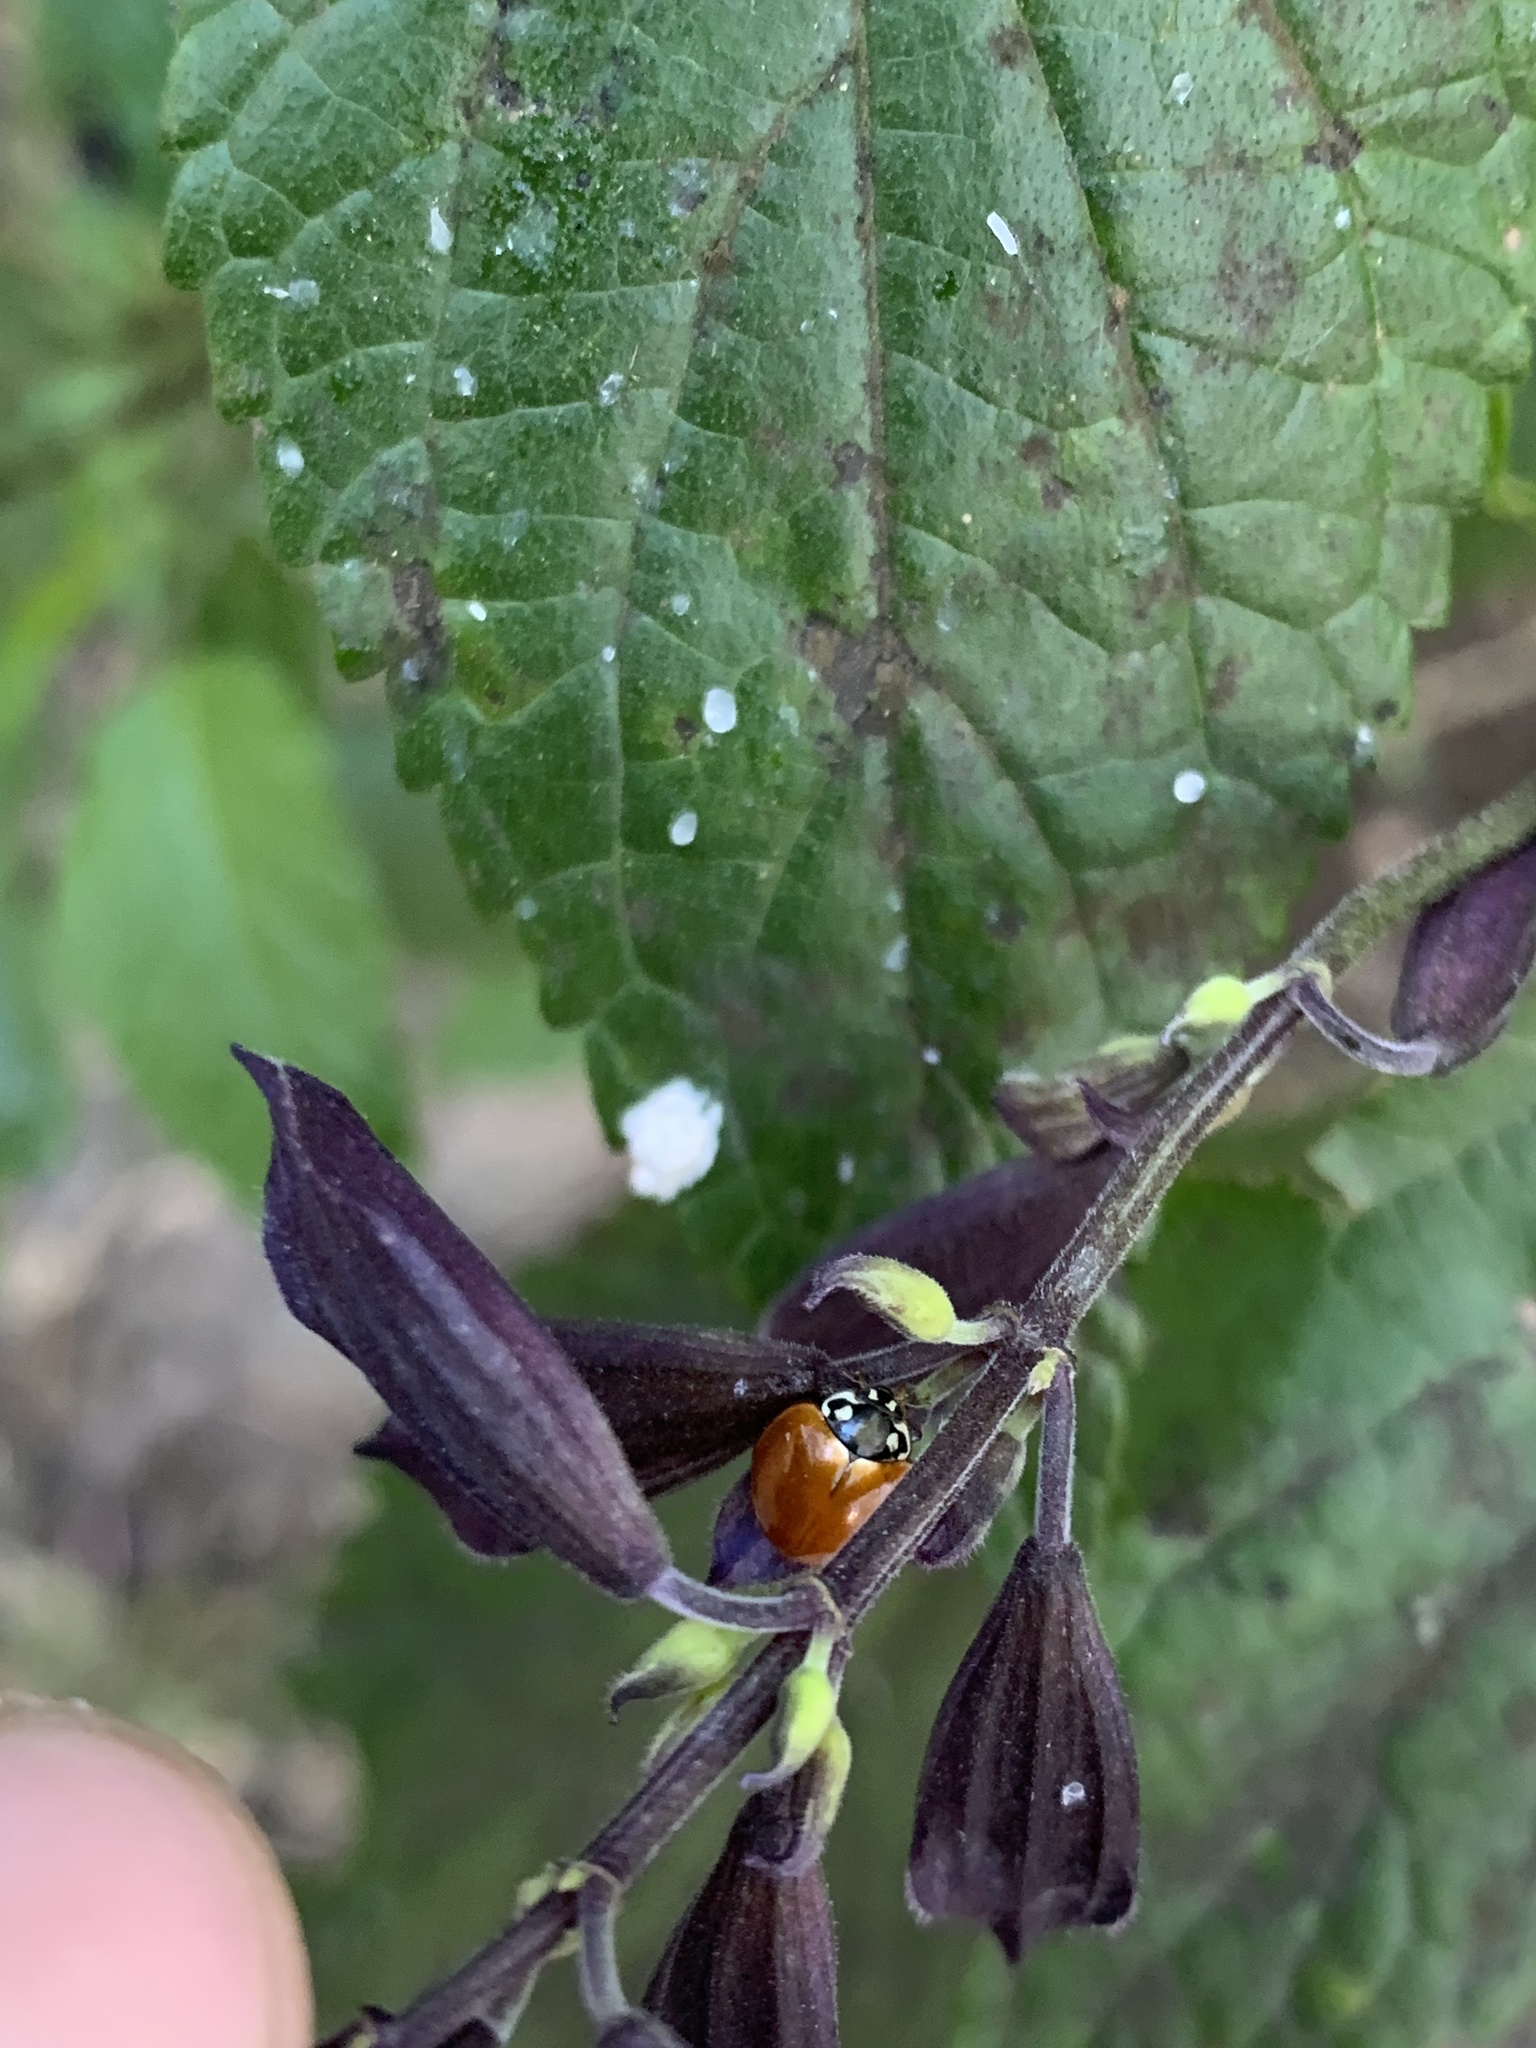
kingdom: Animalia
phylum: Arthropoda
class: Insecta
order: Coleoptera
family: Coccinellidae
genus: Cycloneda
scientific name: Cycloneda sanguinea
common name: Ladybird beetle
